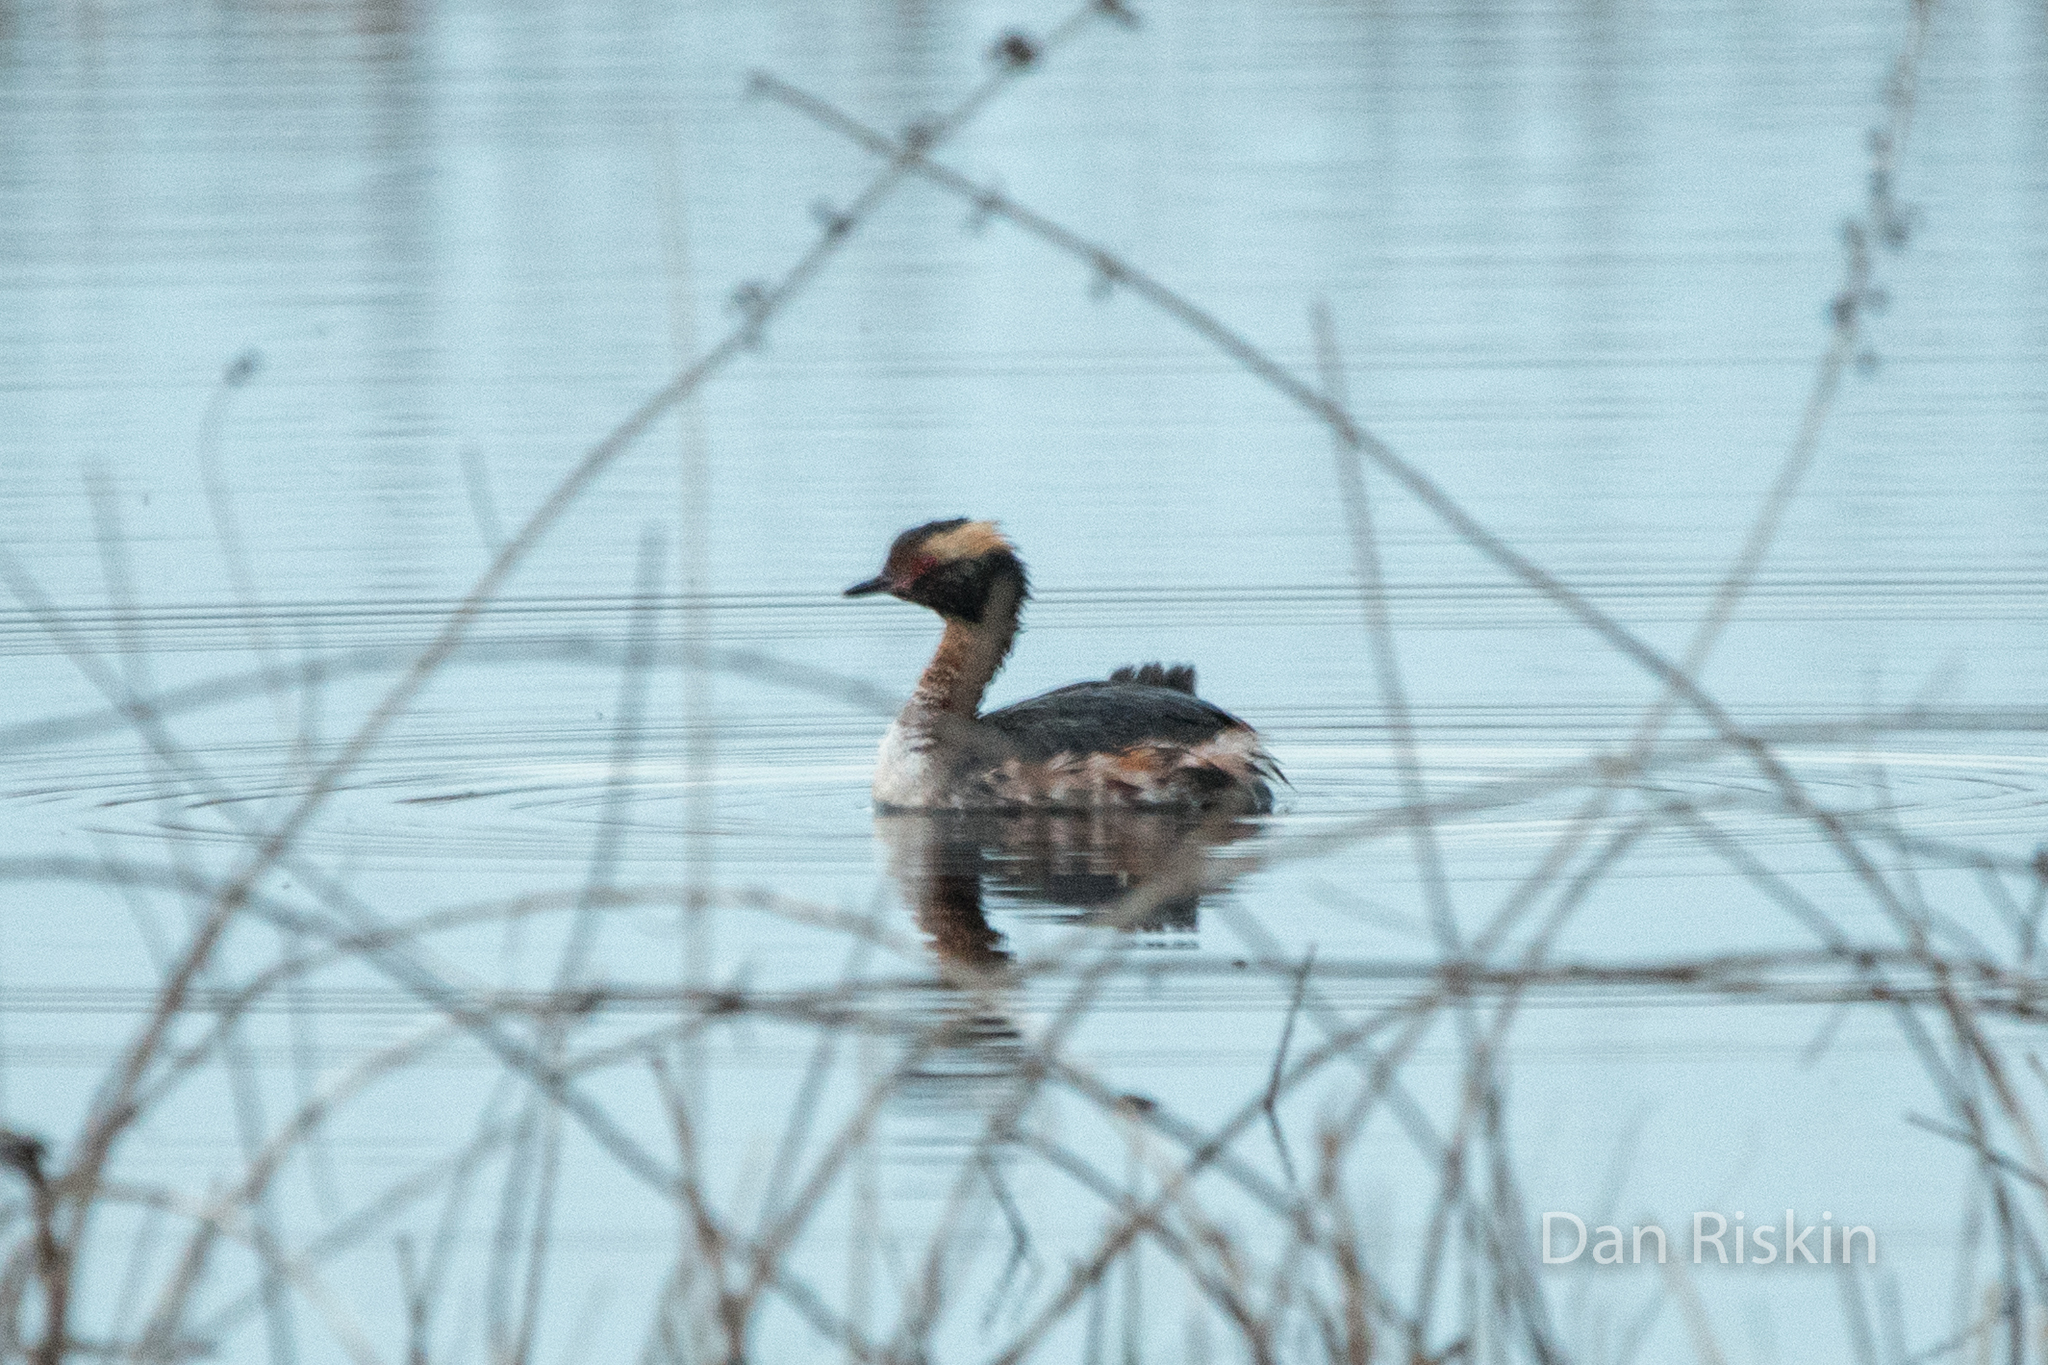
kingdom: Animalia
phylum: Chordata
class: Aves
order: Podicipediformes
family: Podicipedidae
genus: Podiceps
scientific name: Podiceps auritus
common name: Horned grebe
